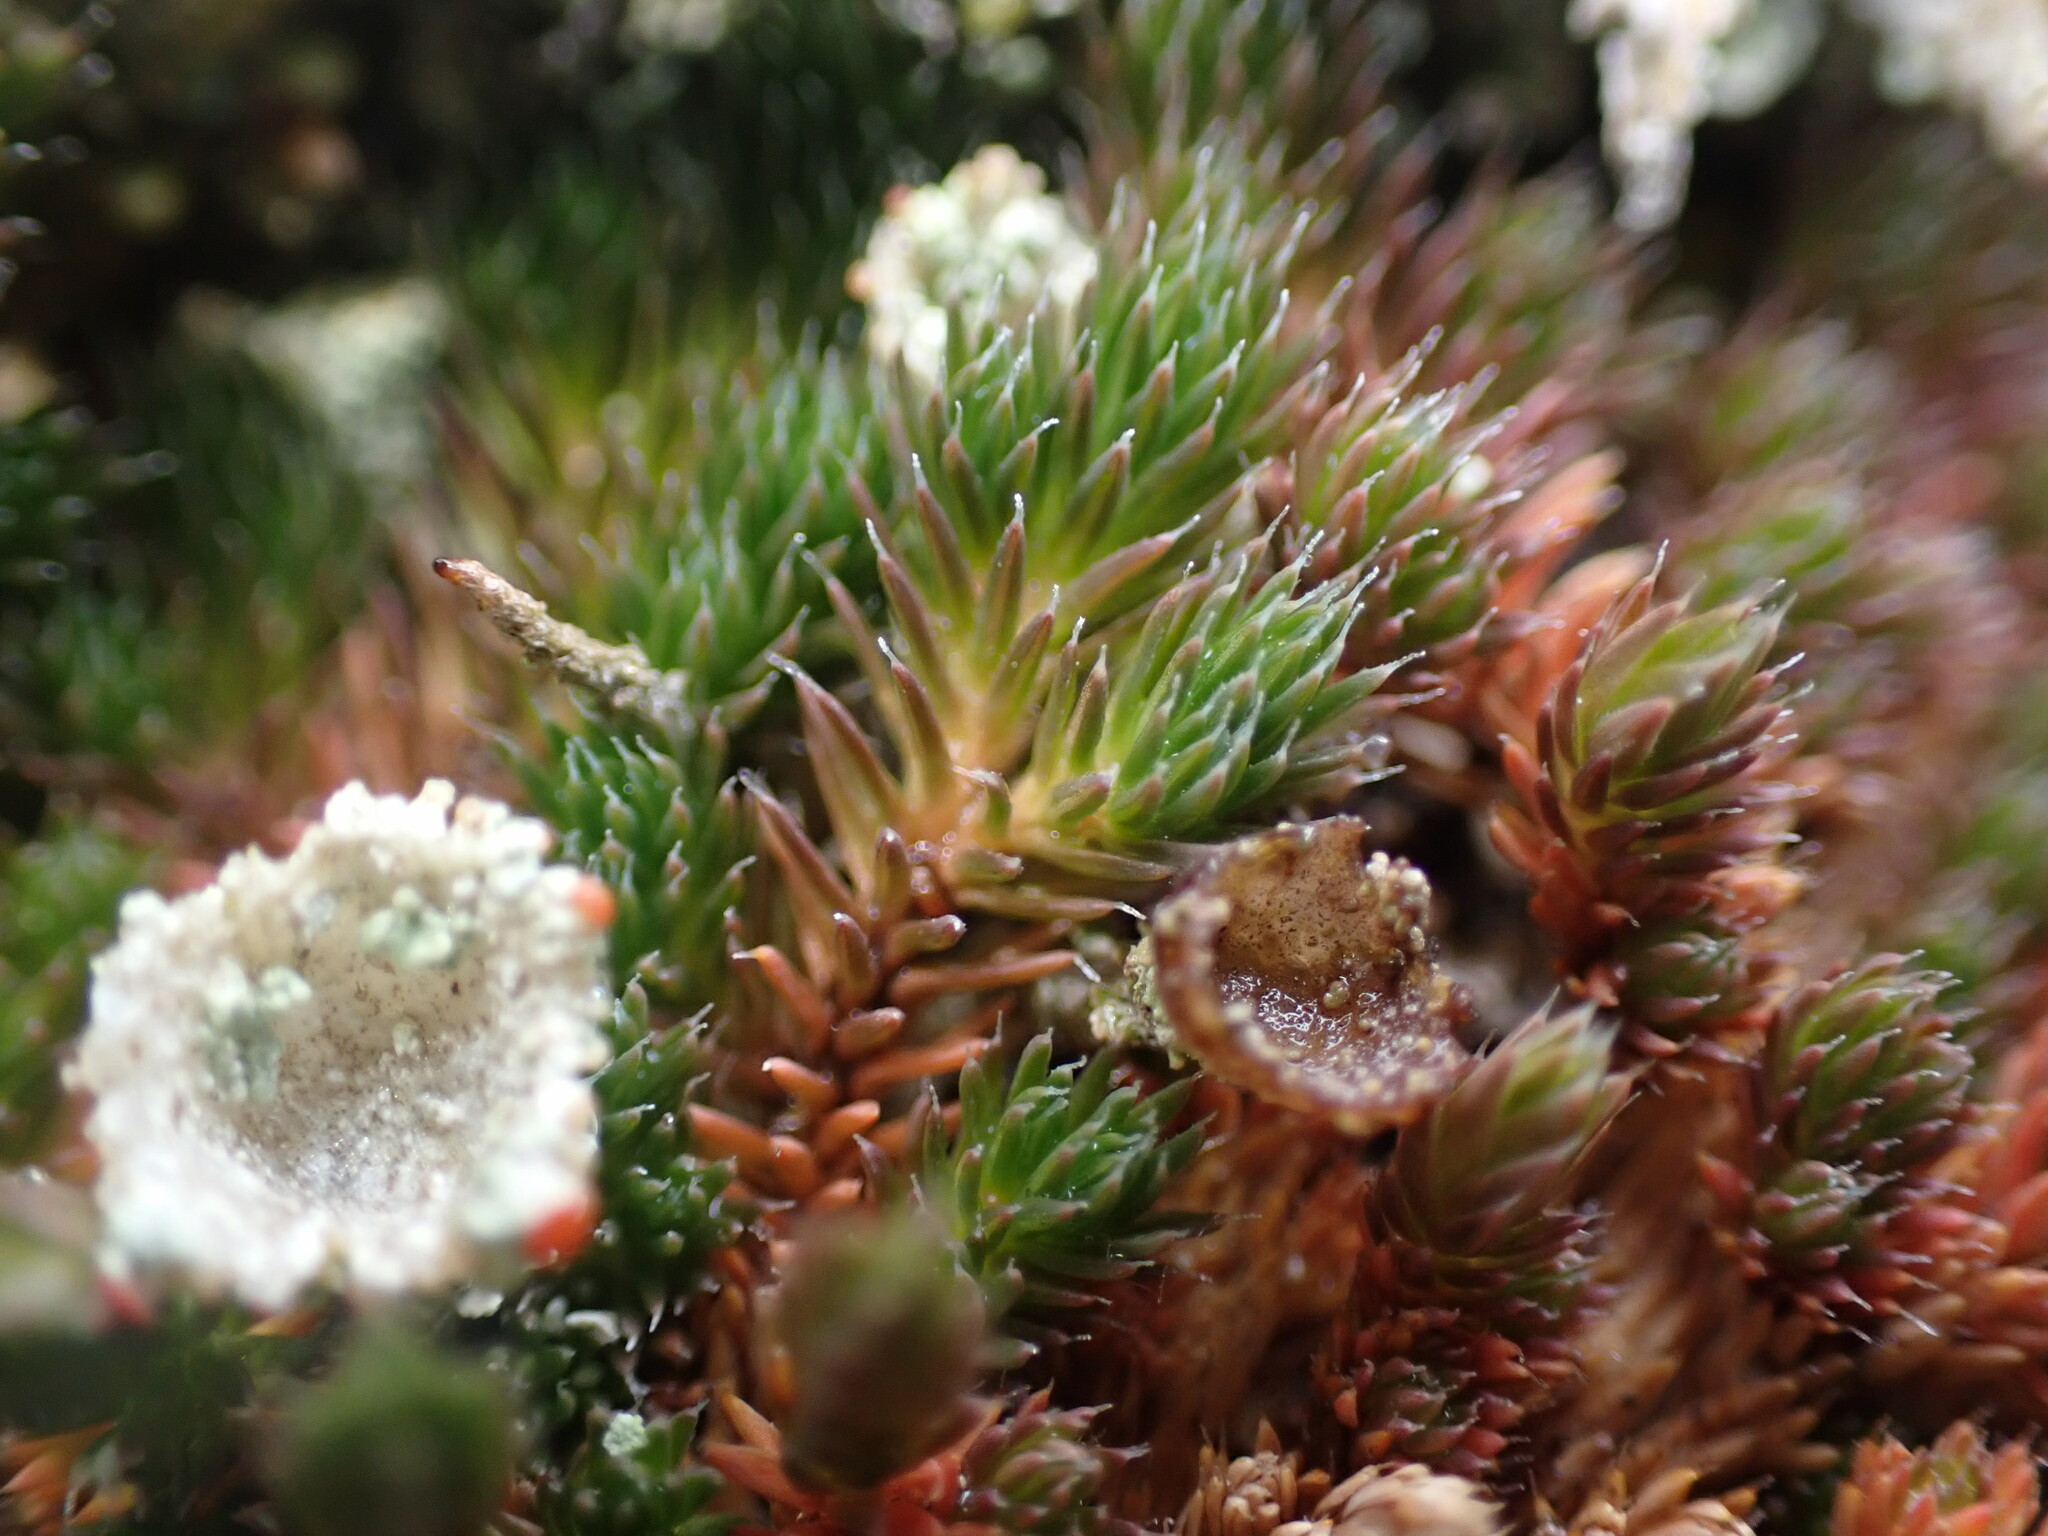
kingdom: Plantae
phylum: Tracheophyta
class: Lycopodiopsida
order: Selaginellales
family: Selaginellaceae
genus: Selaginella
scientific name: Selaginella densa
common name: Mountain spike-moss
